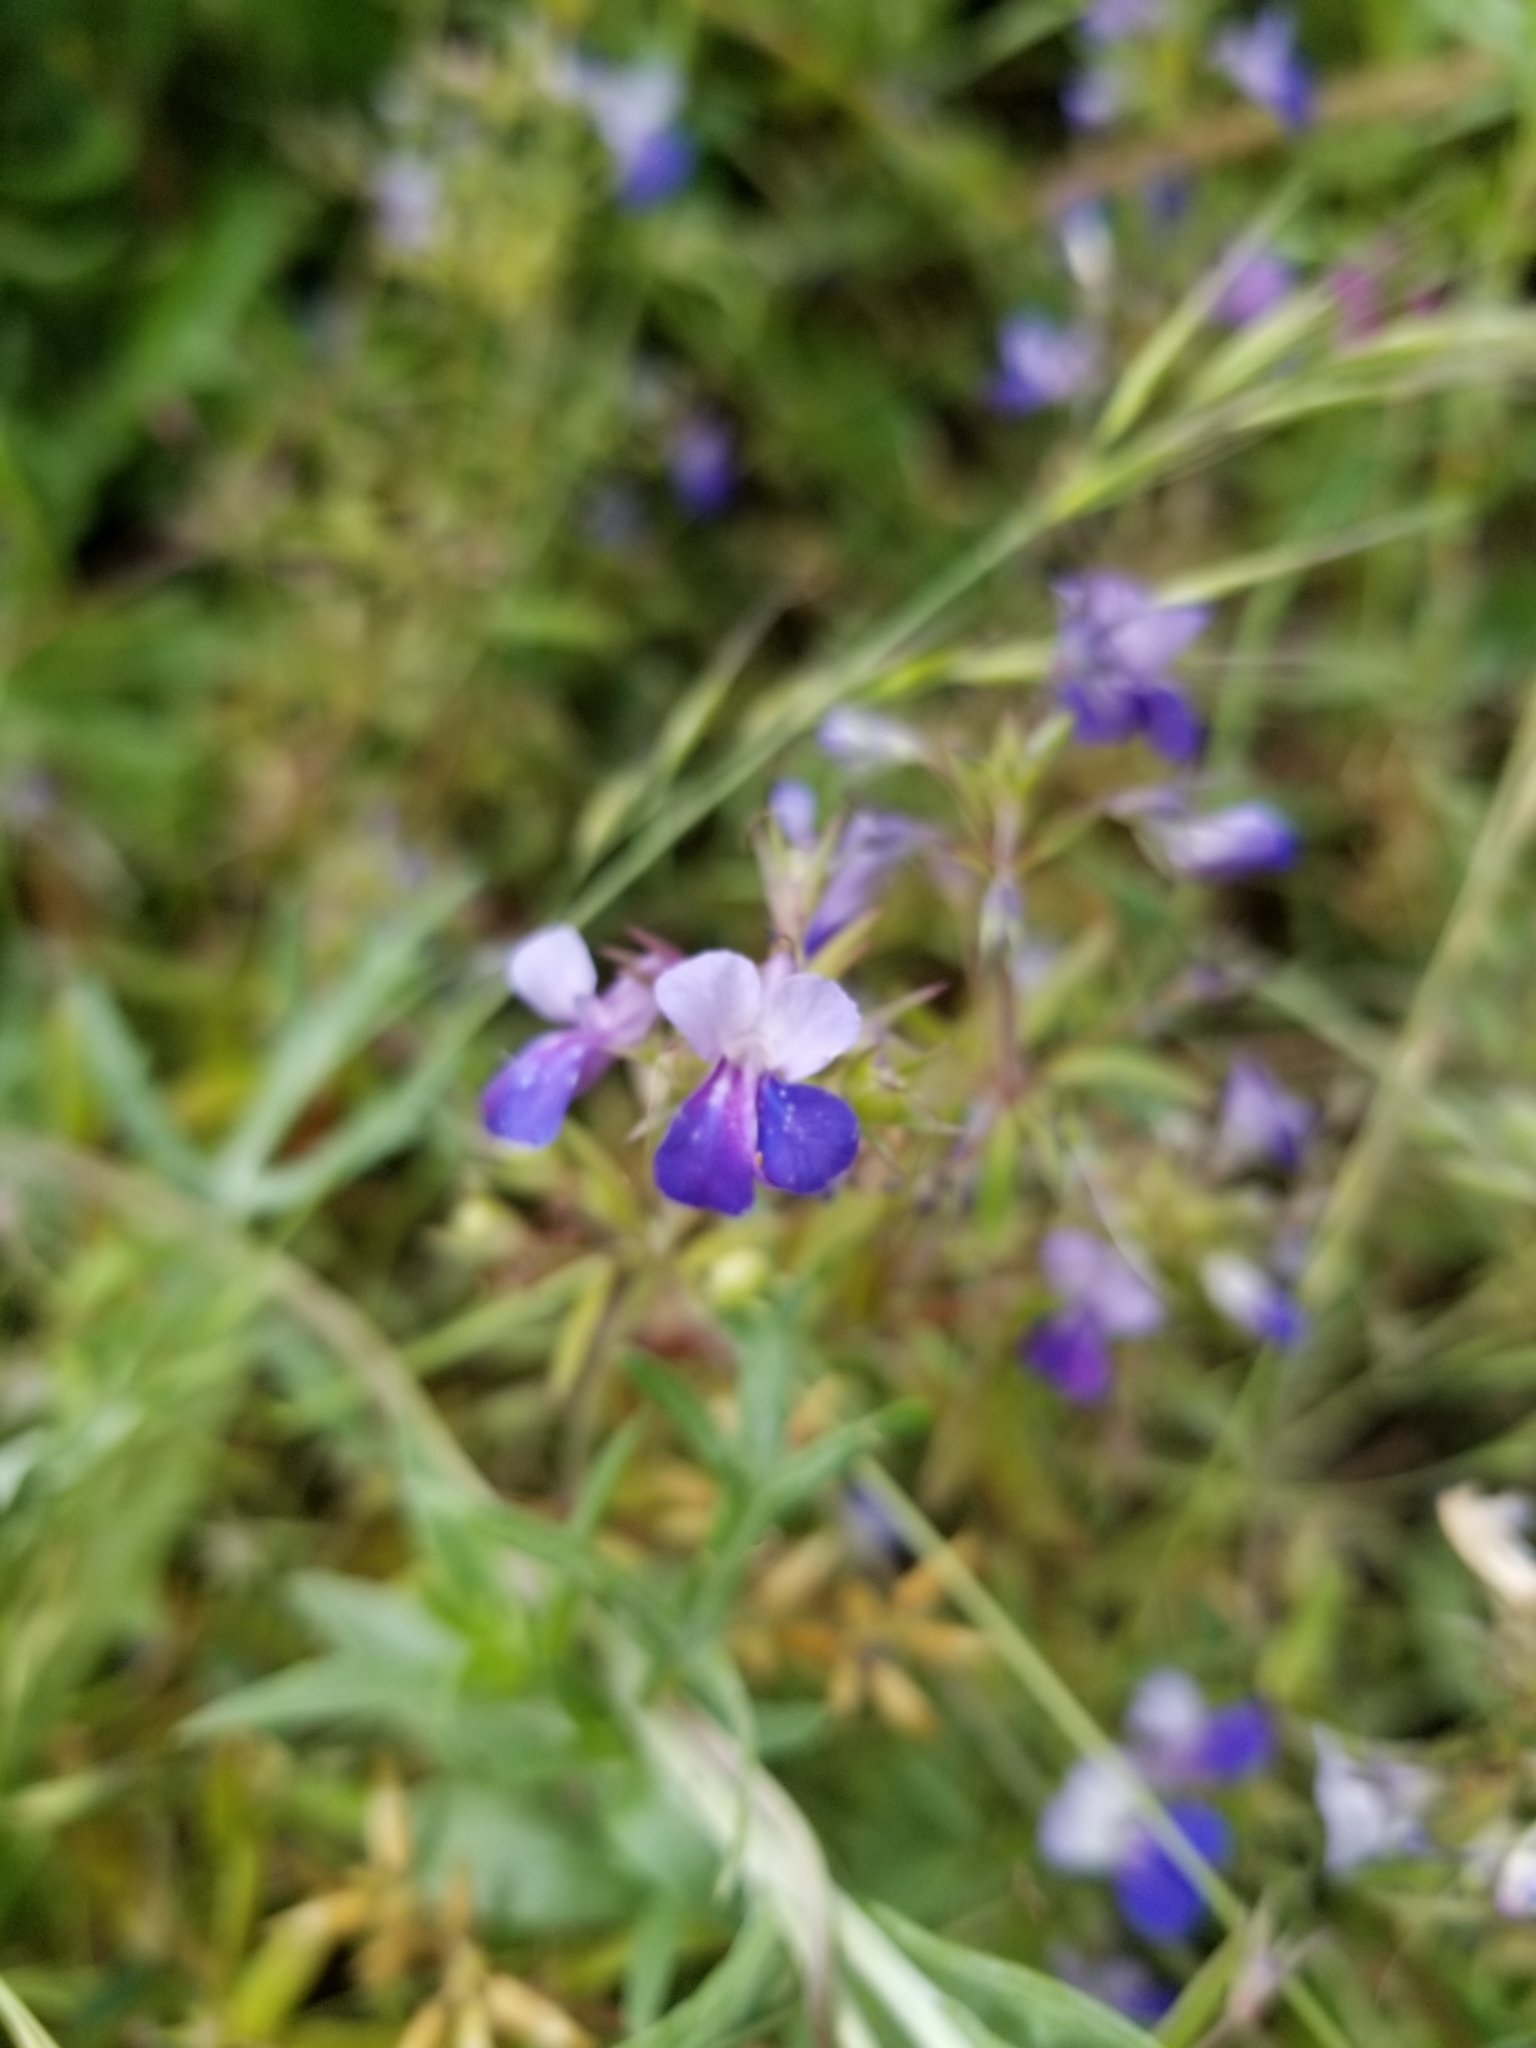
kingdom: Plantae
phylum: Tracheophyta
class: Magnoliopsida
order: Lamiales
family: Plantaginaceae
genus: Collinsia
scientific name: Collinsia grandiflora
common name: Large-flower blue-eyed-mary
